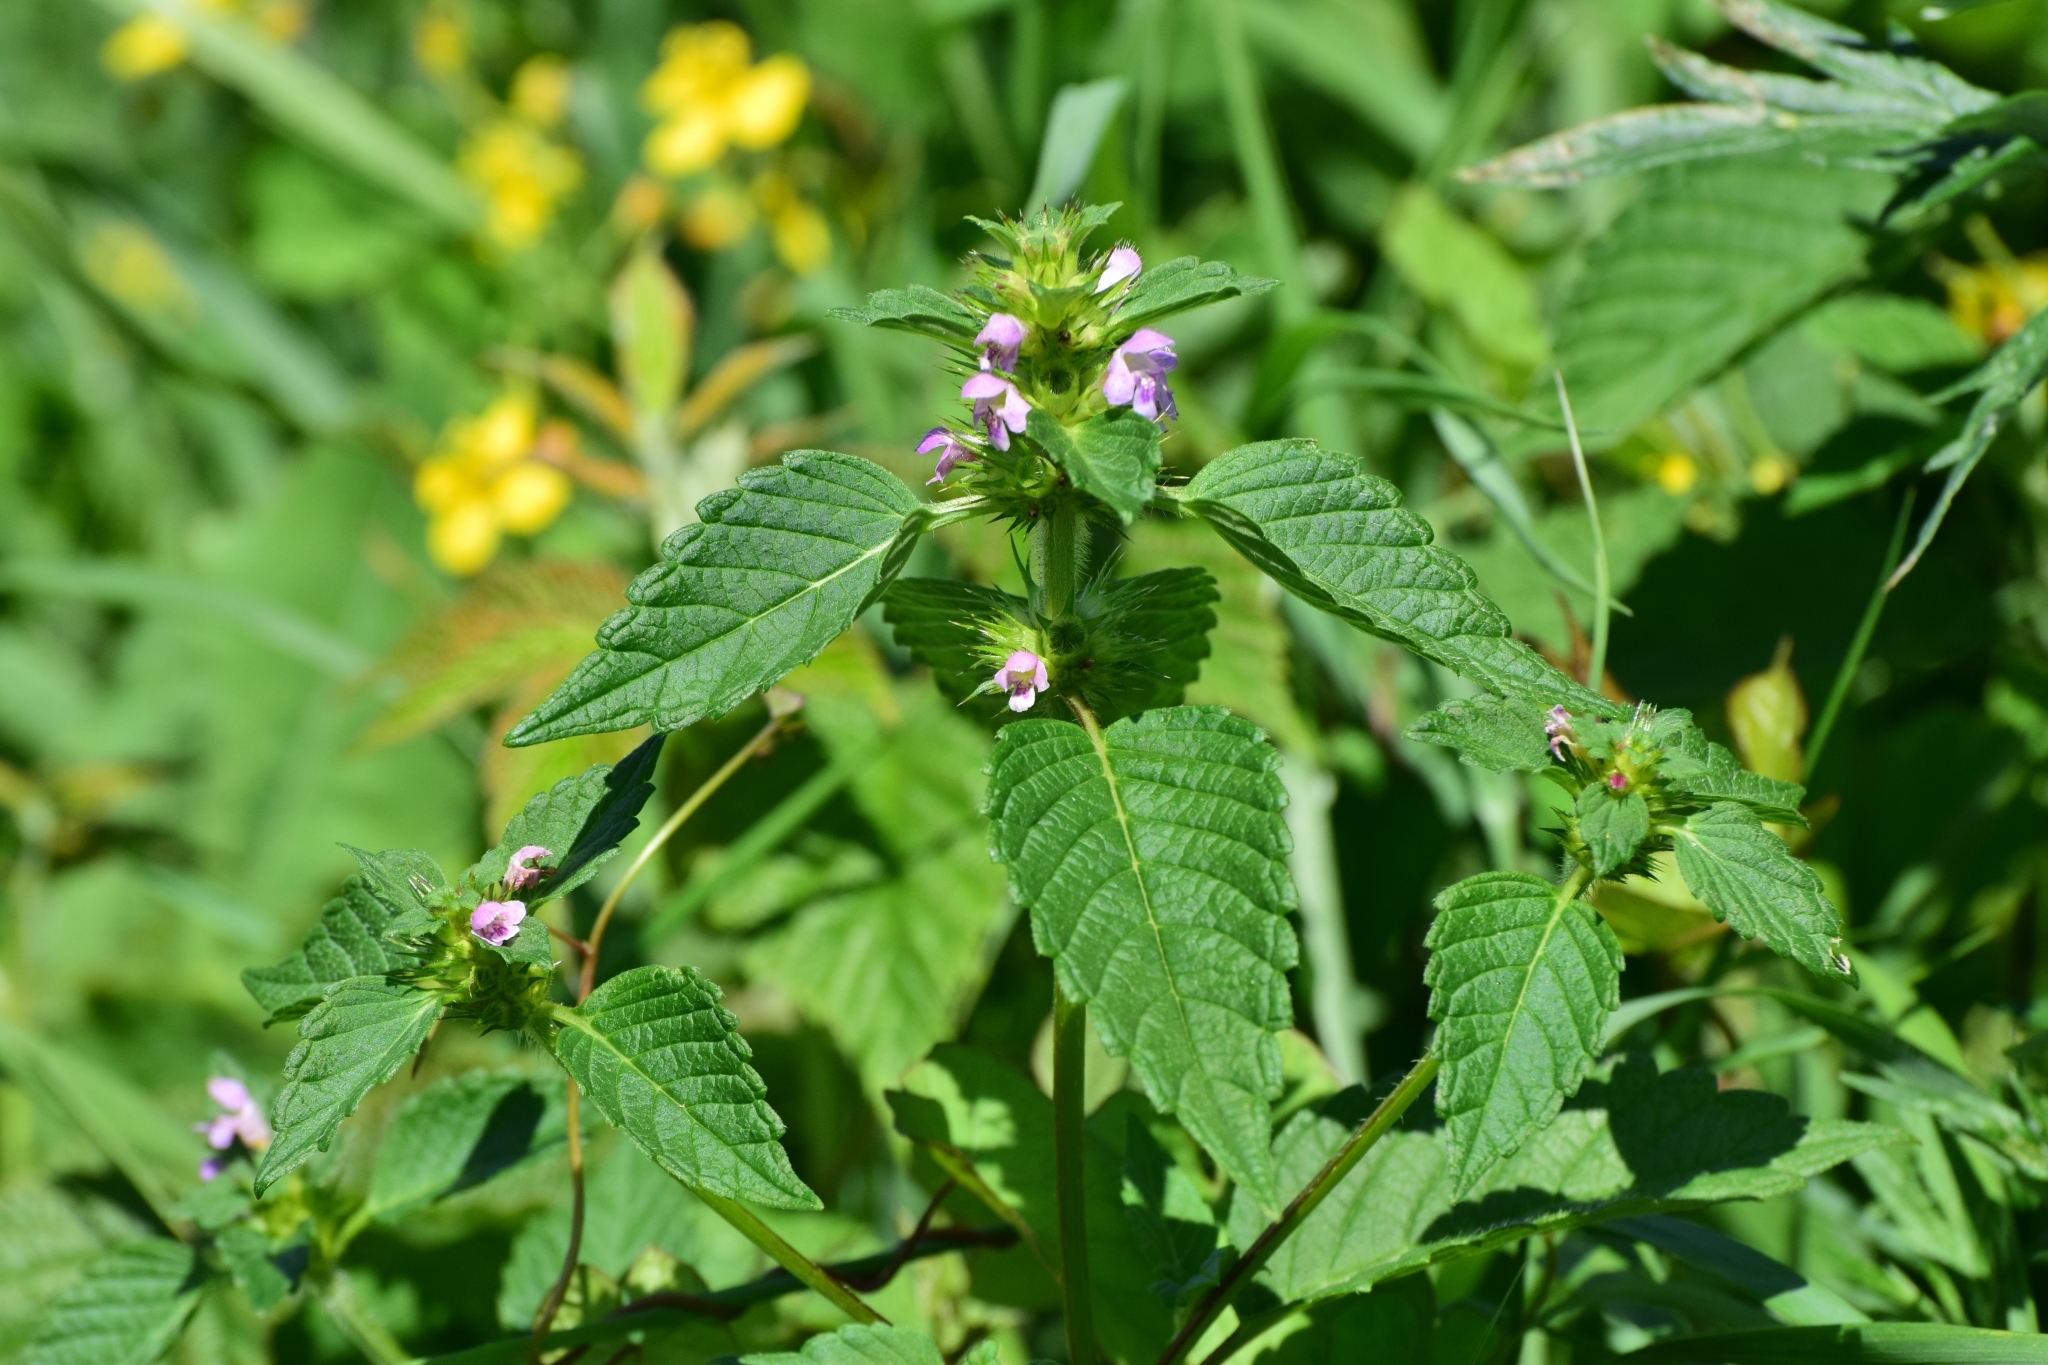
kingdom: Plantae
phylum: Tracheophyta
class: Magnoliopsida
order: Lamiales
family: Lamiaceae
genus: Galeopsis
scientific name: Galeopsis tetrahit
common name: Common hemp-nettle
